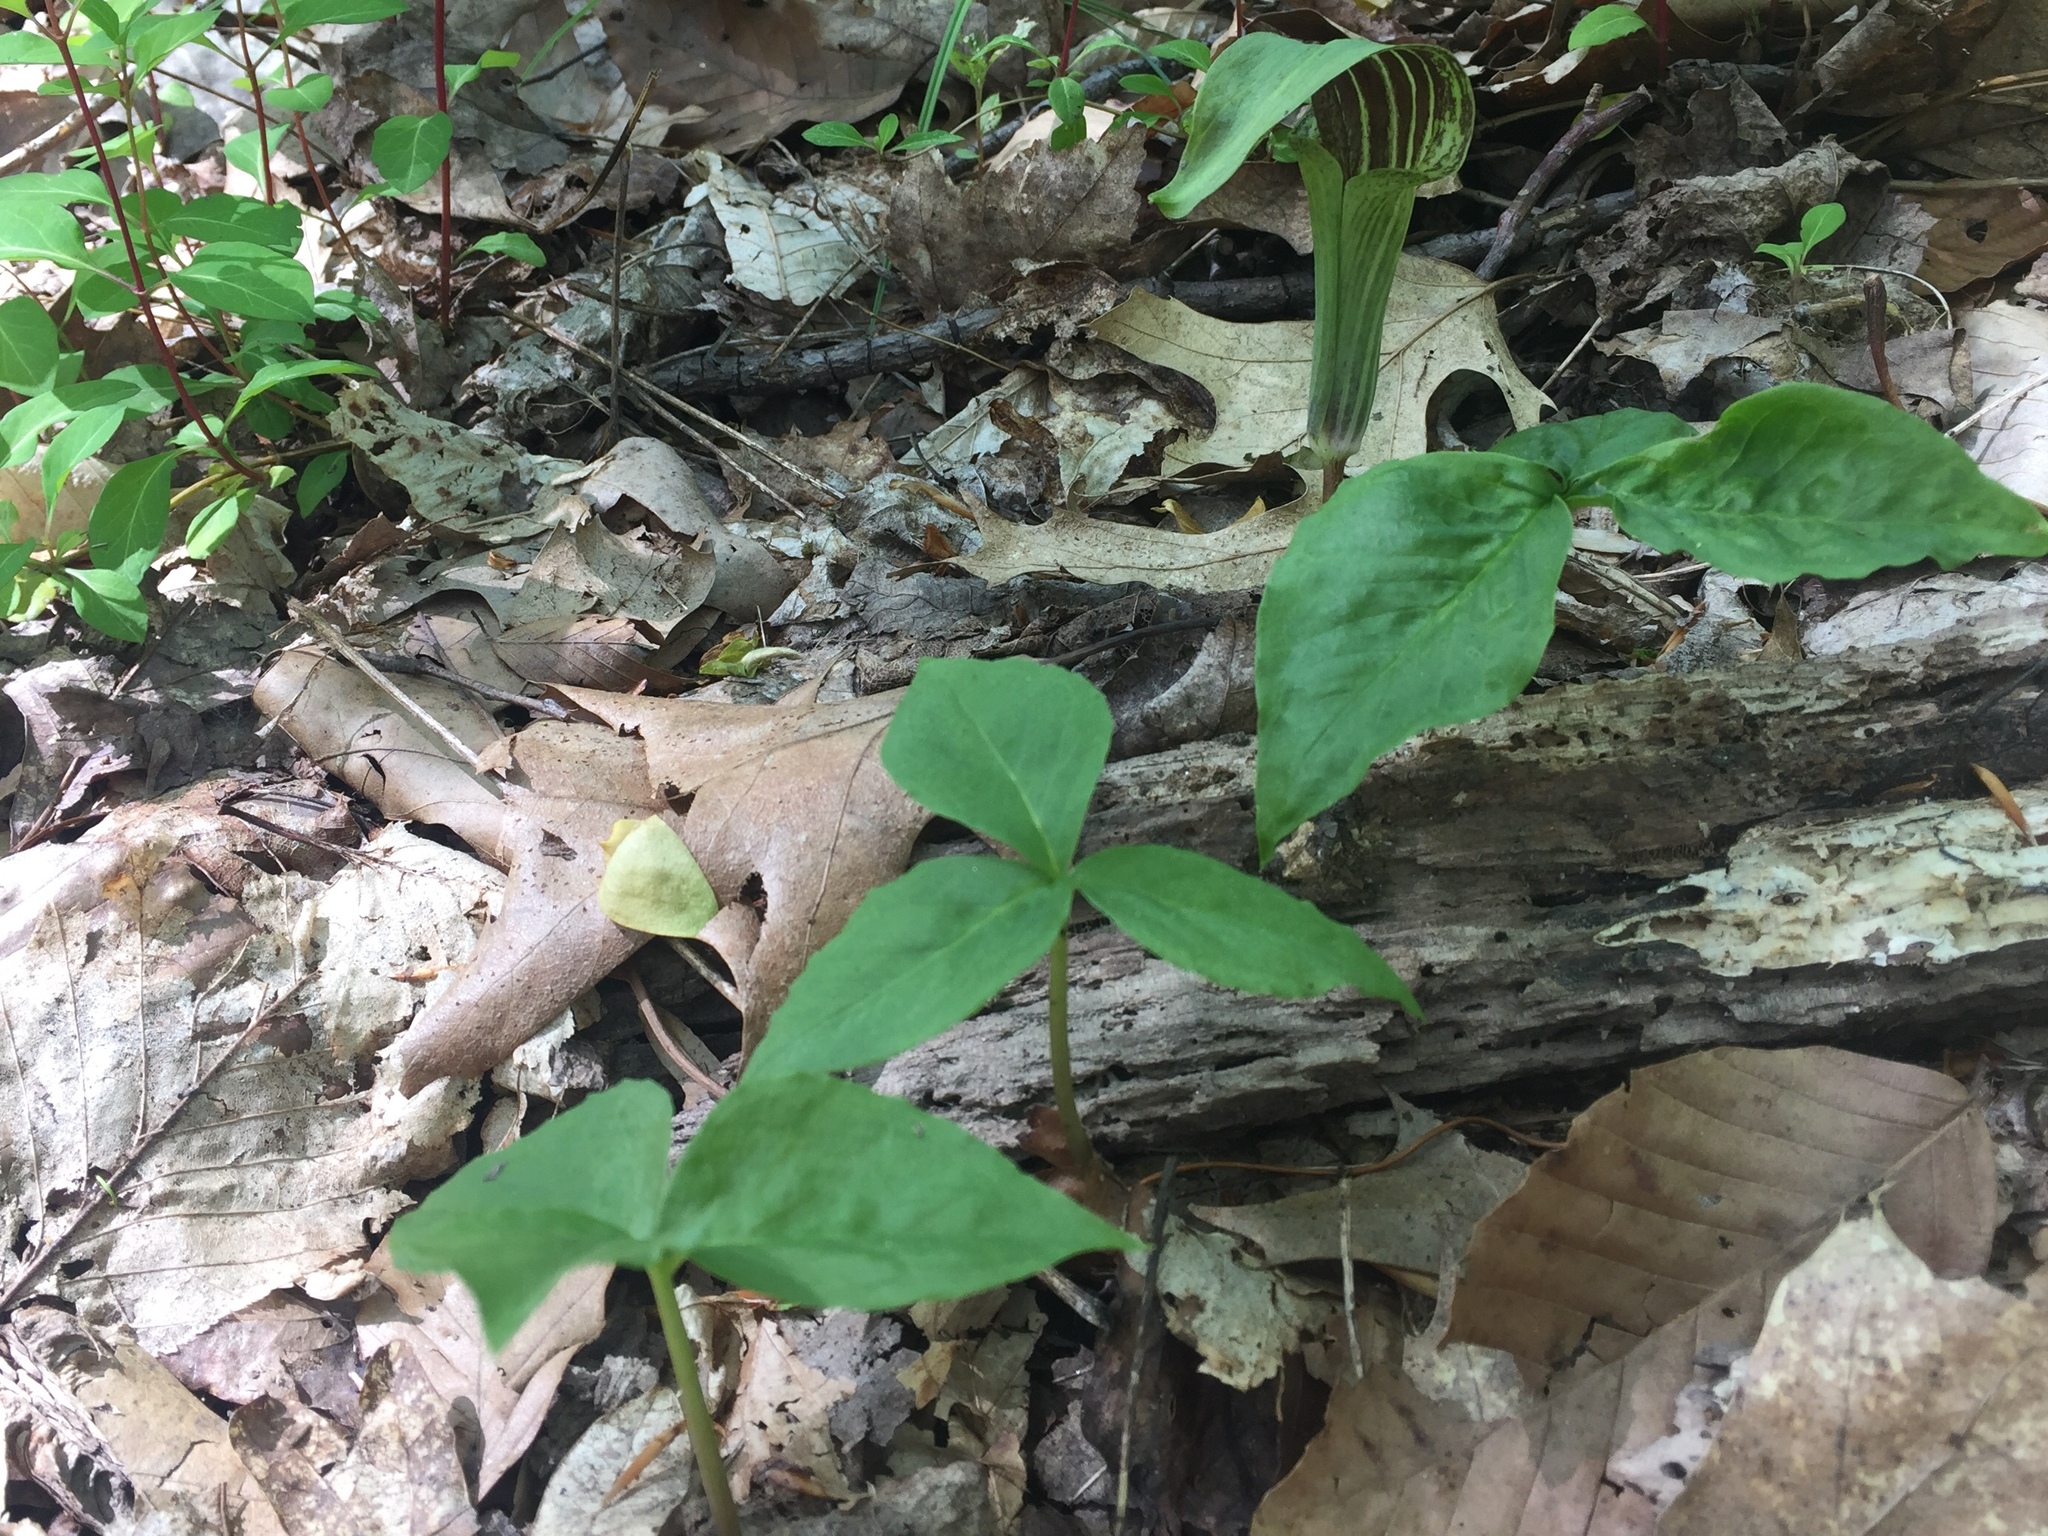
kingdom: Plantae
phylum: Tracheophyta
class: Liliopsida
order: Alismatales
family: Araceae
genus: Arisaema
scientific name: Arisaema triphyllum
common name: Jack-in-the-pulpit
